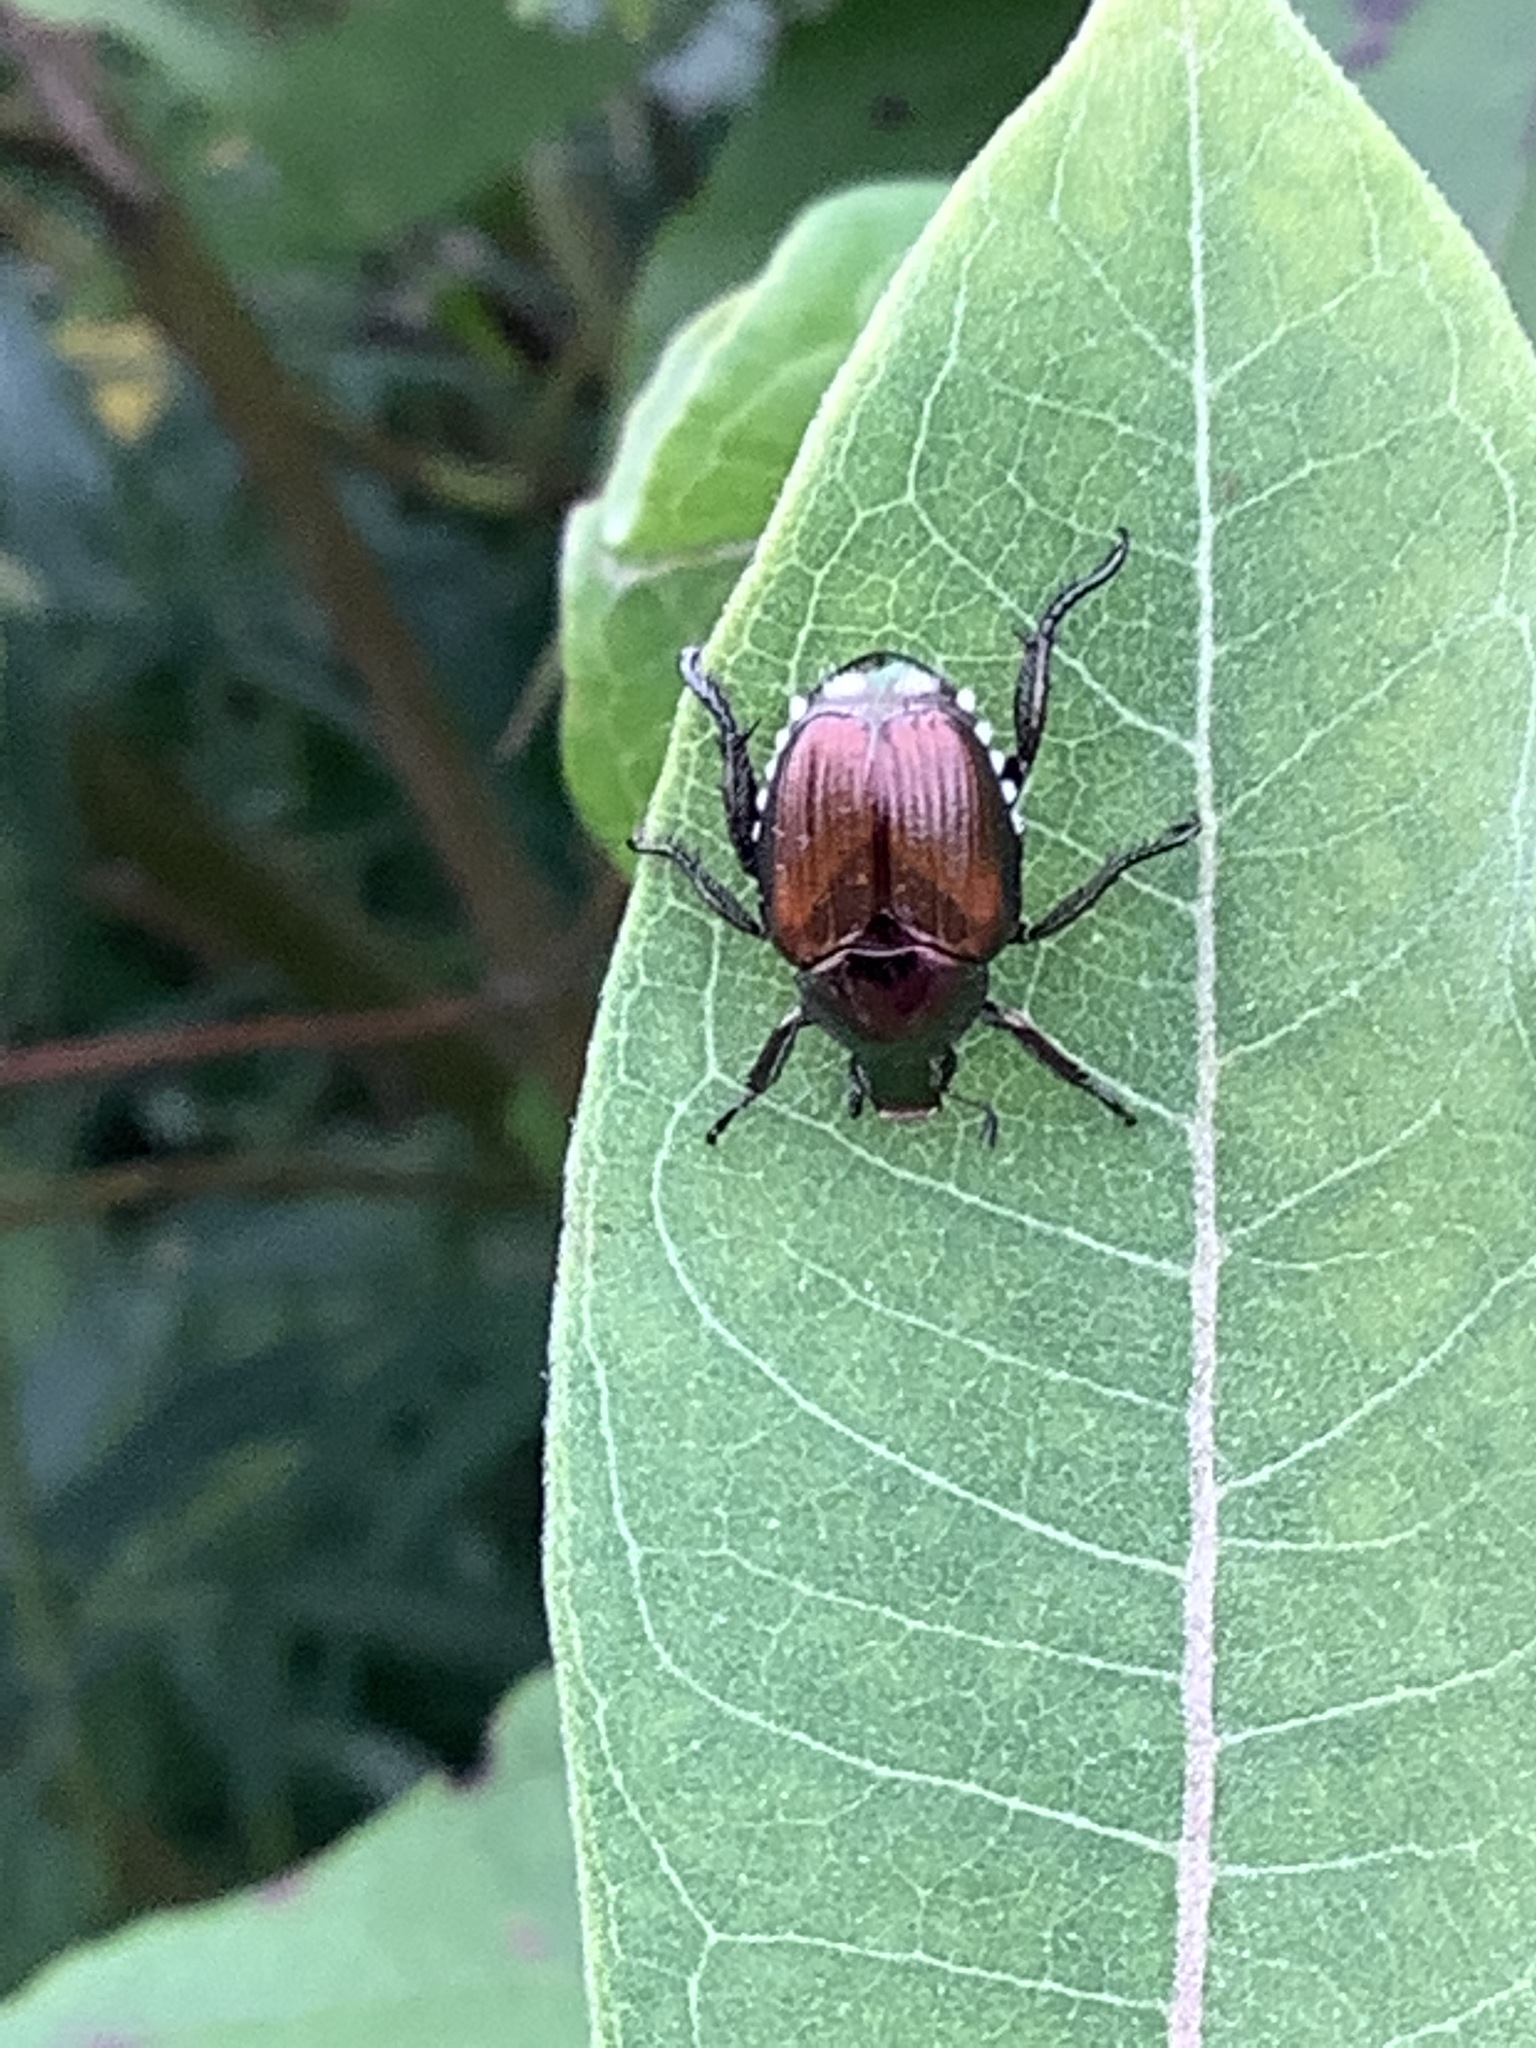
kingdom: Animalia
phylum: Arthropoda
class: Insecta
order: Coleoptera
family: Scarabaeidae
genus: Popillia
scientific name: Popillia japonica
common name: Japanese beetle
